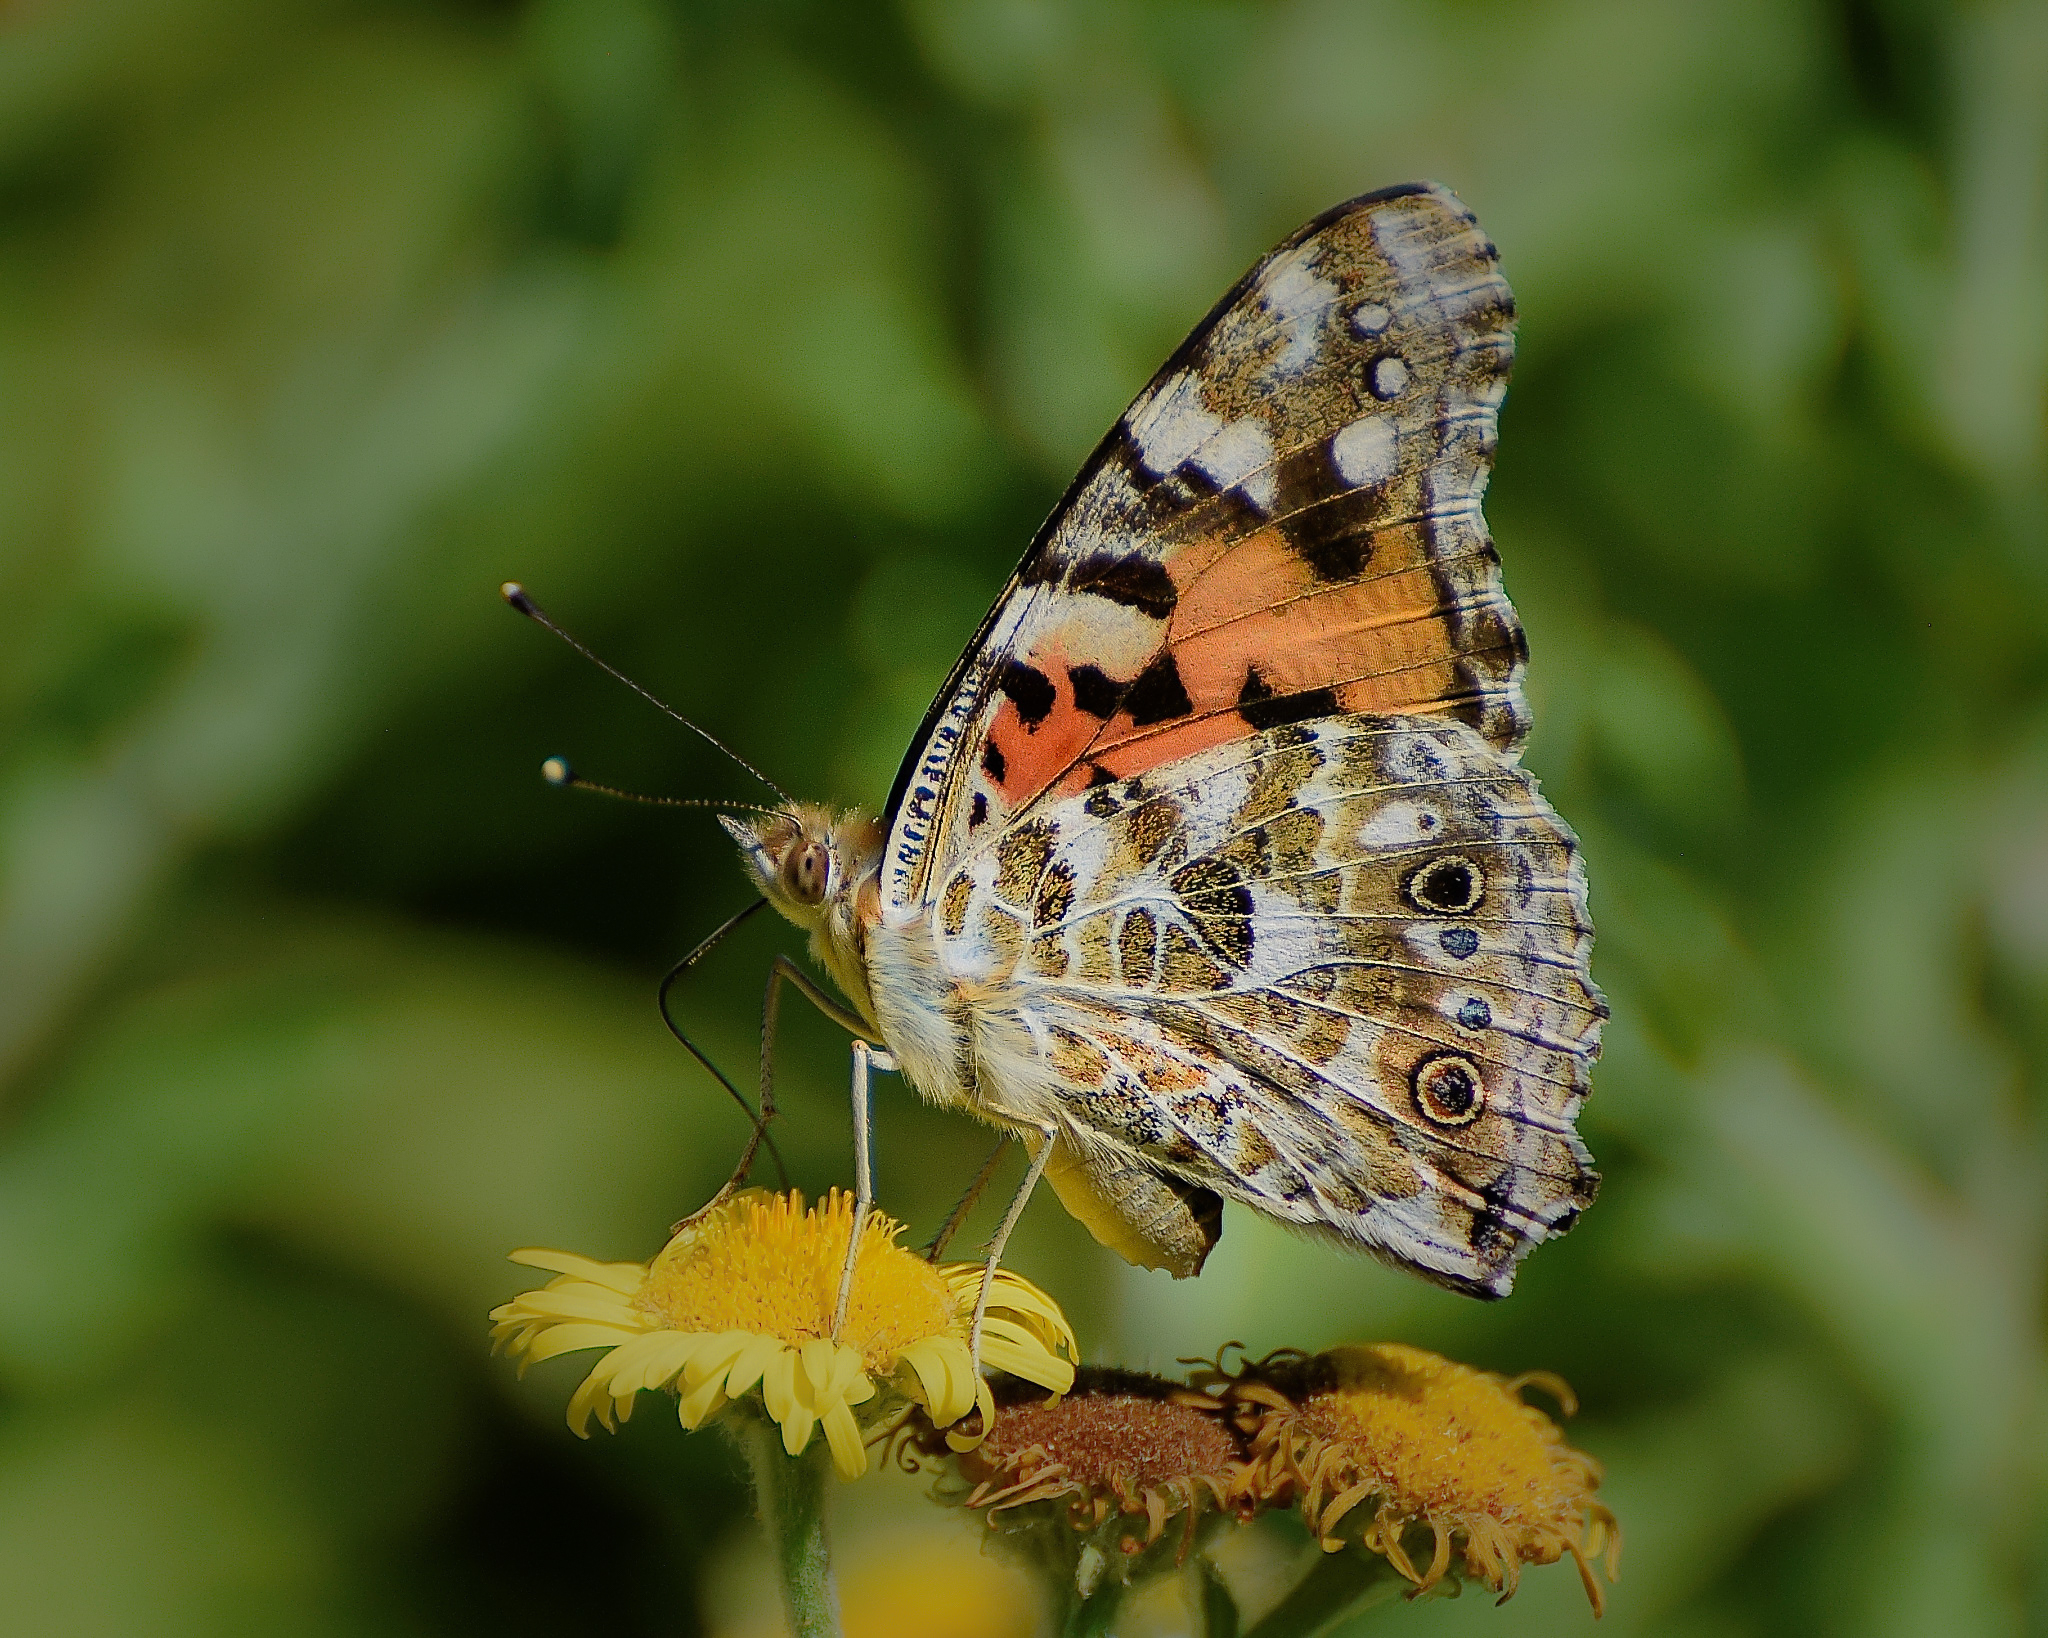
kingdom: Animalia
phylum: Arthropoda
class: Insecta
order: Lepidoptera
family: Nymphalidae
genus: Vanessa
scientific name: Vanessa cardui
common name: Painted lady
